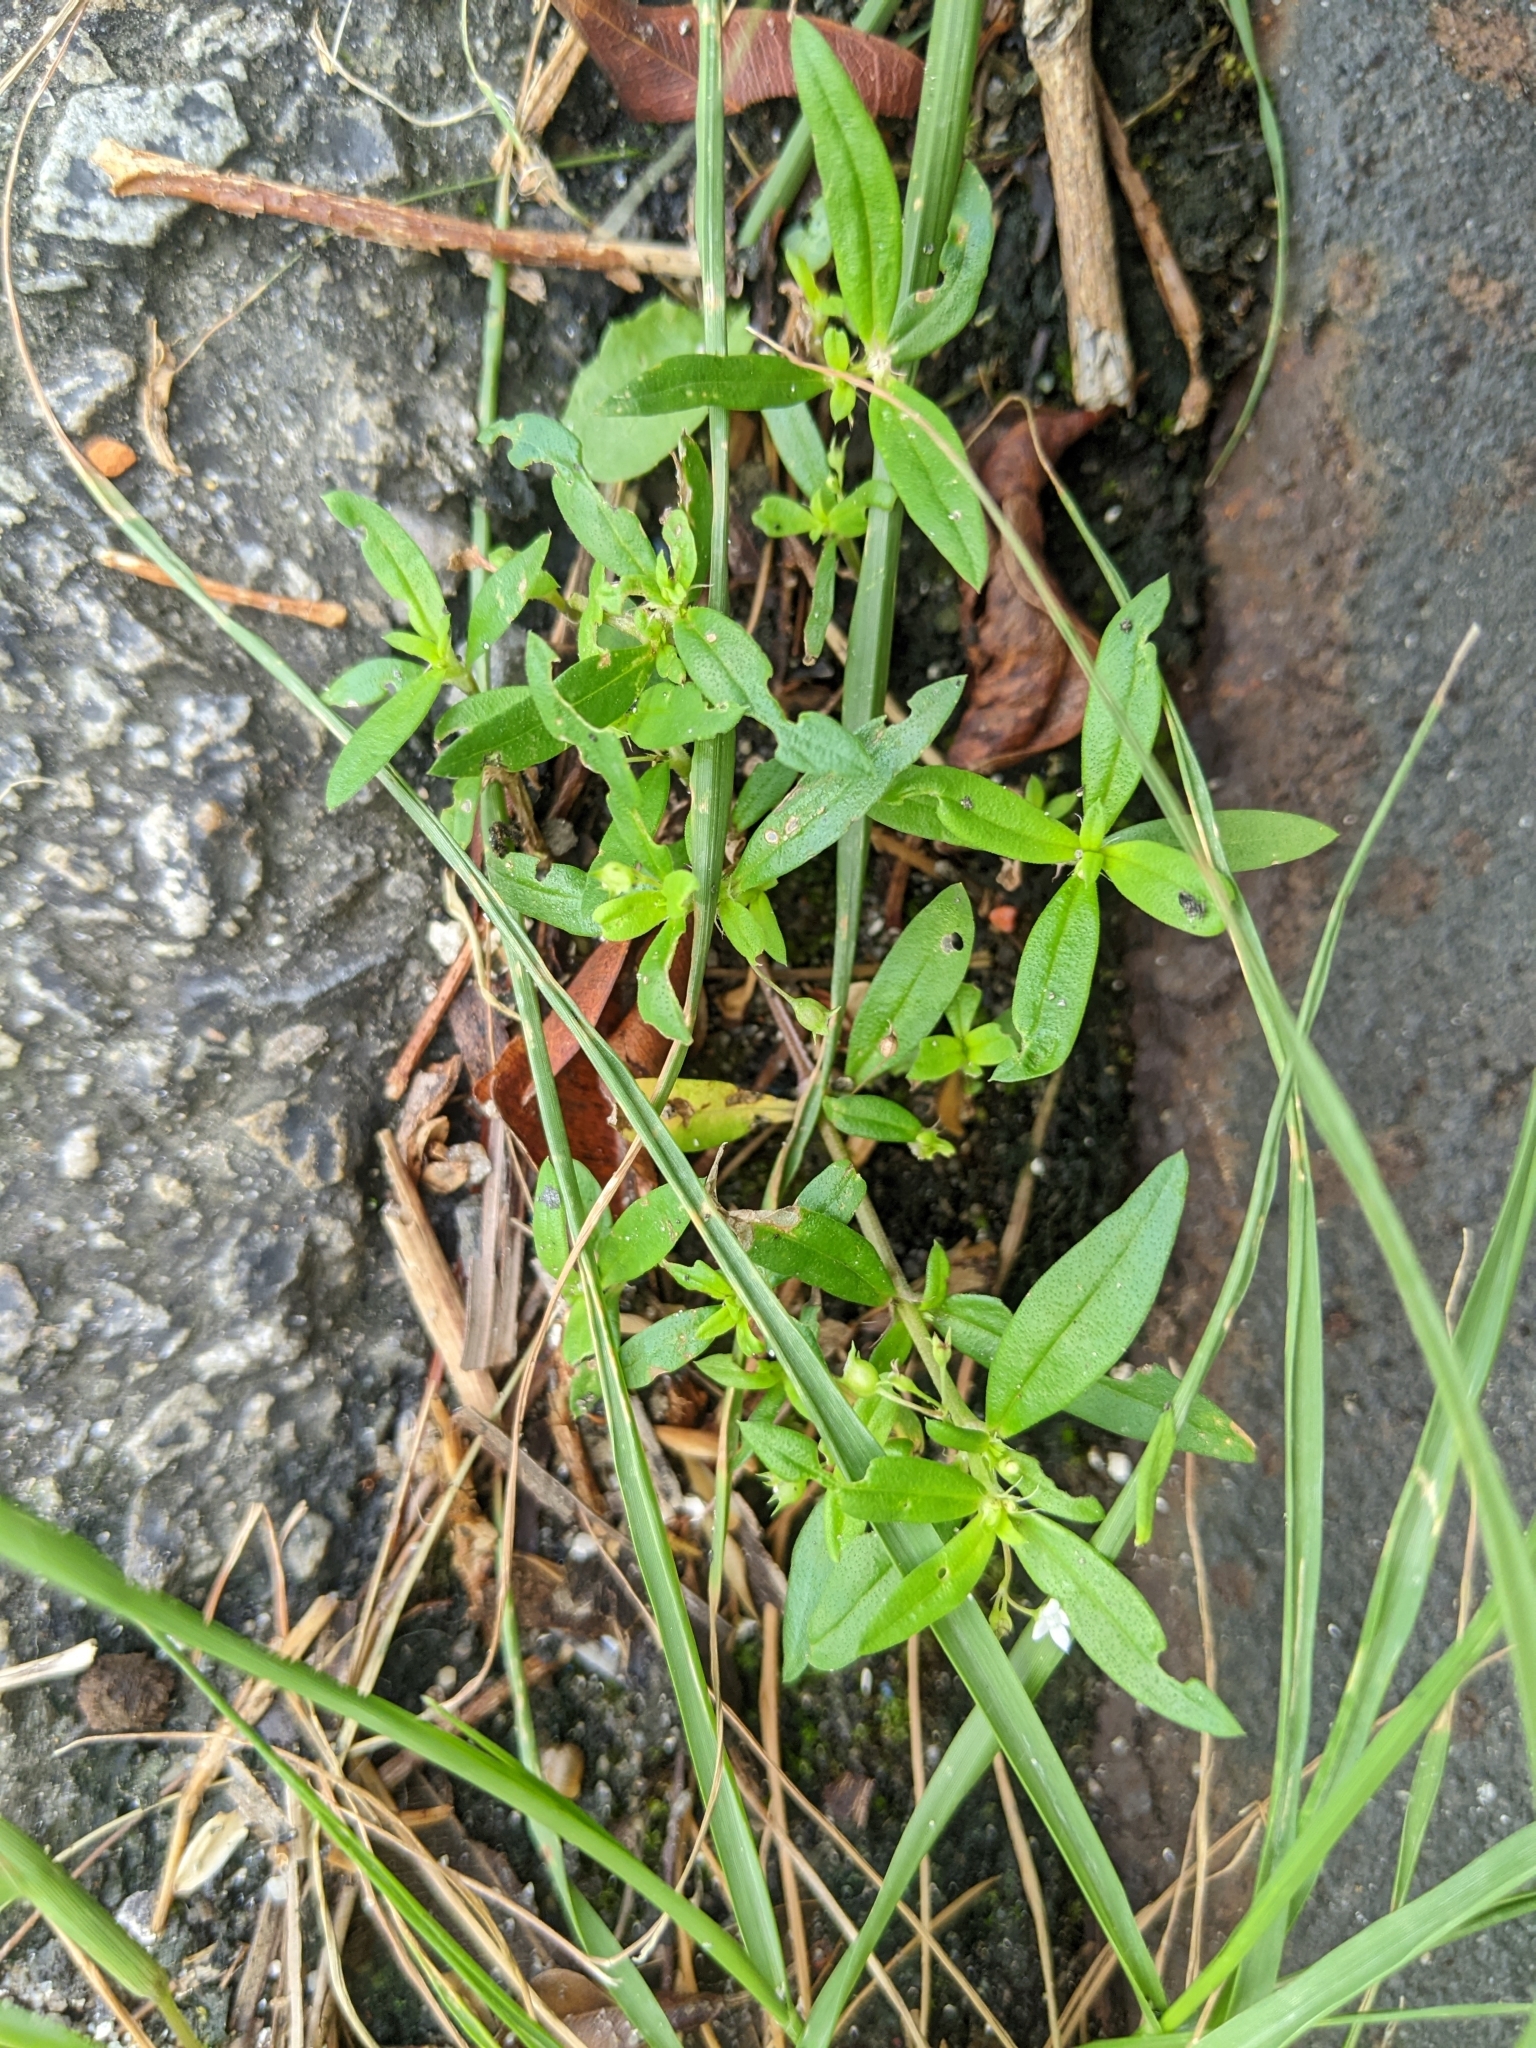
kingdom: Plantae
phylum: Tracheophyta
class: Magnoliopsida
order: Gentianales
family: Rubiaceae
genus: Oldenlandia
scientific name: Oldenlandia corymbosa
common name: Flat-top mille graines
